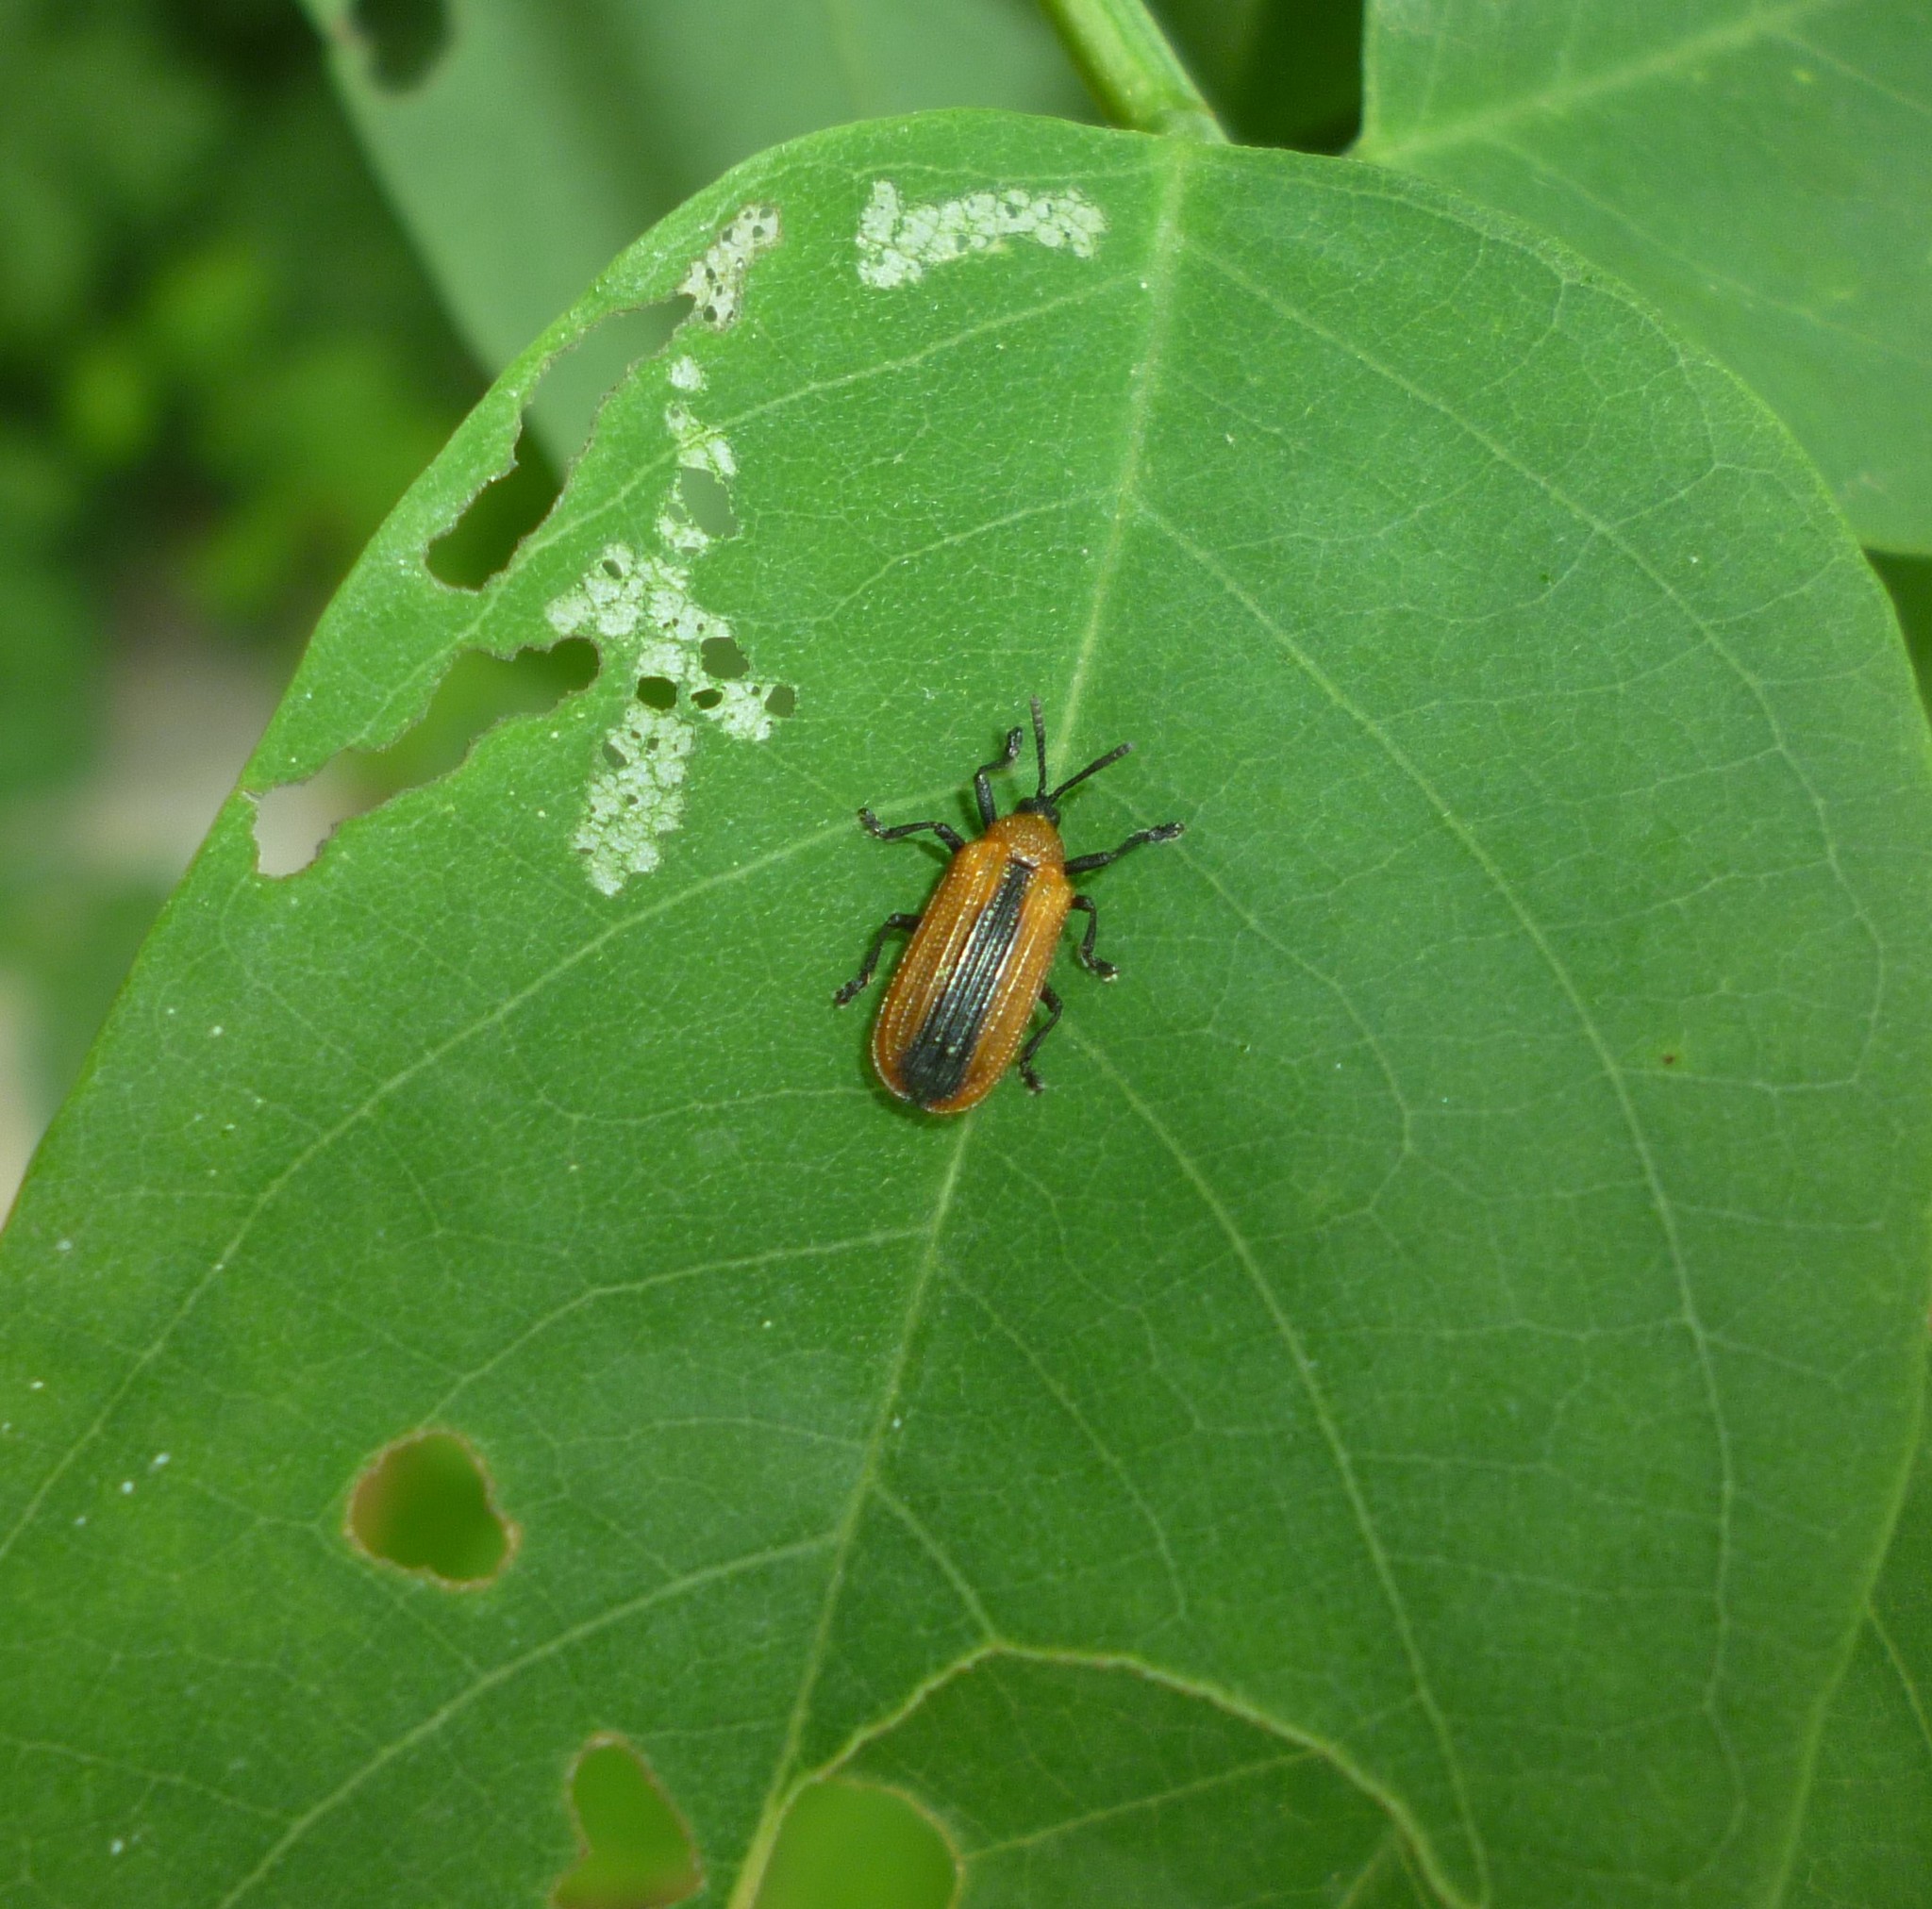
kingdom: Animalia
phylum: Arthropoda
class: Insecta
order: Coleoptera
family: Chrysomelidae
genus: Odontota
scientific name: Odontota dorsalis
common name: Locust leaf-miner beetle
